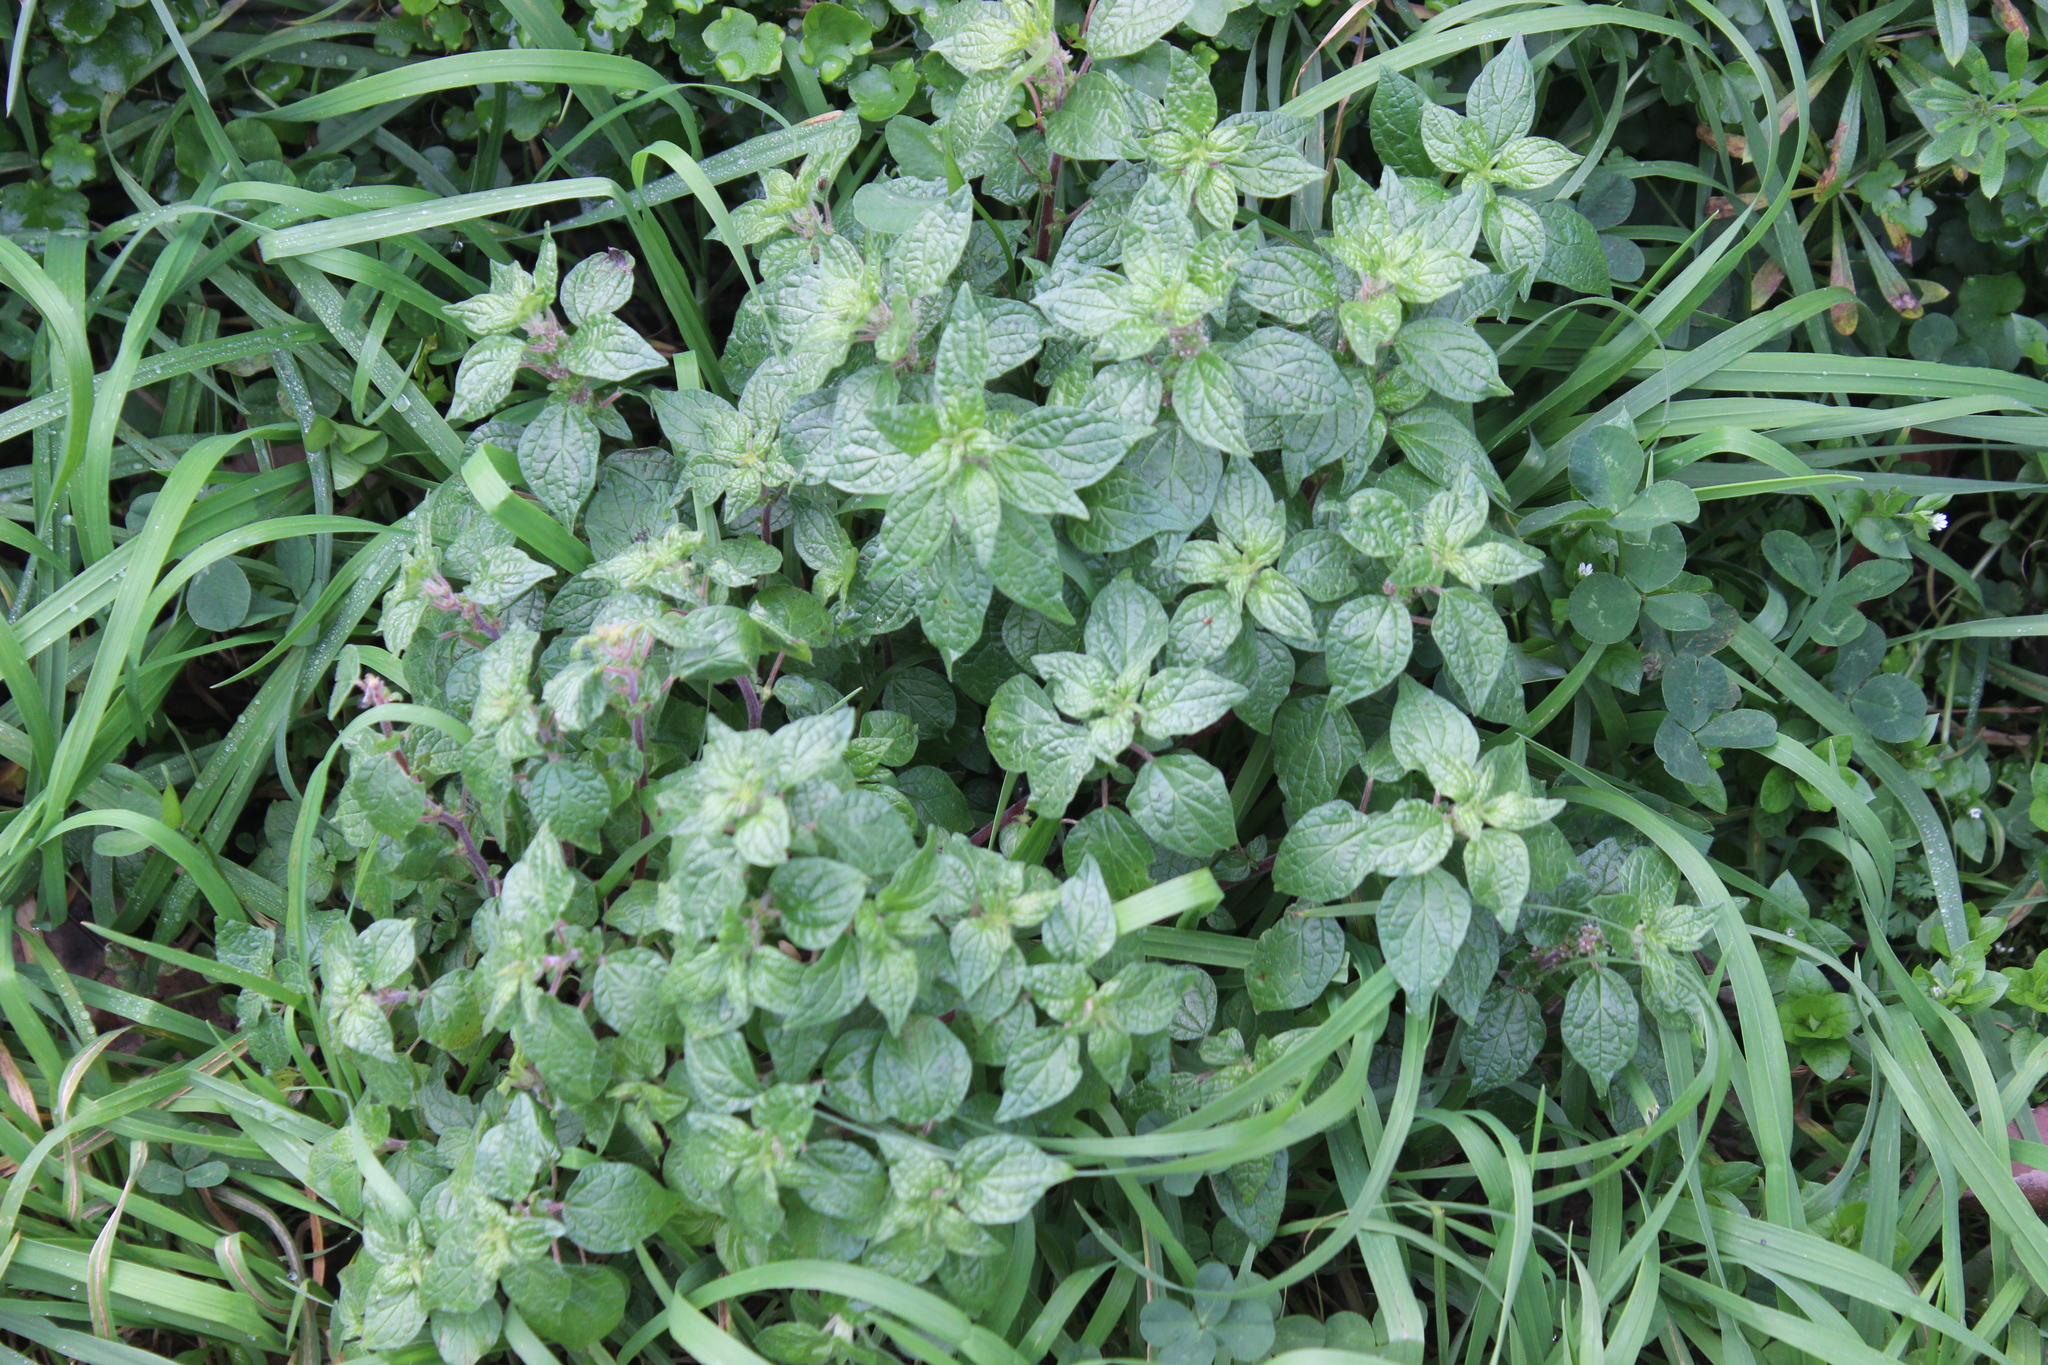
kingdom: Plantae
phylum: Tracheophyta
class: Magnoliopsida
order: Rosales
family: Urticaceae
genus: Parietaria
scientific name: Parietaria judaica
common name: Pellitory-of-the-wall
